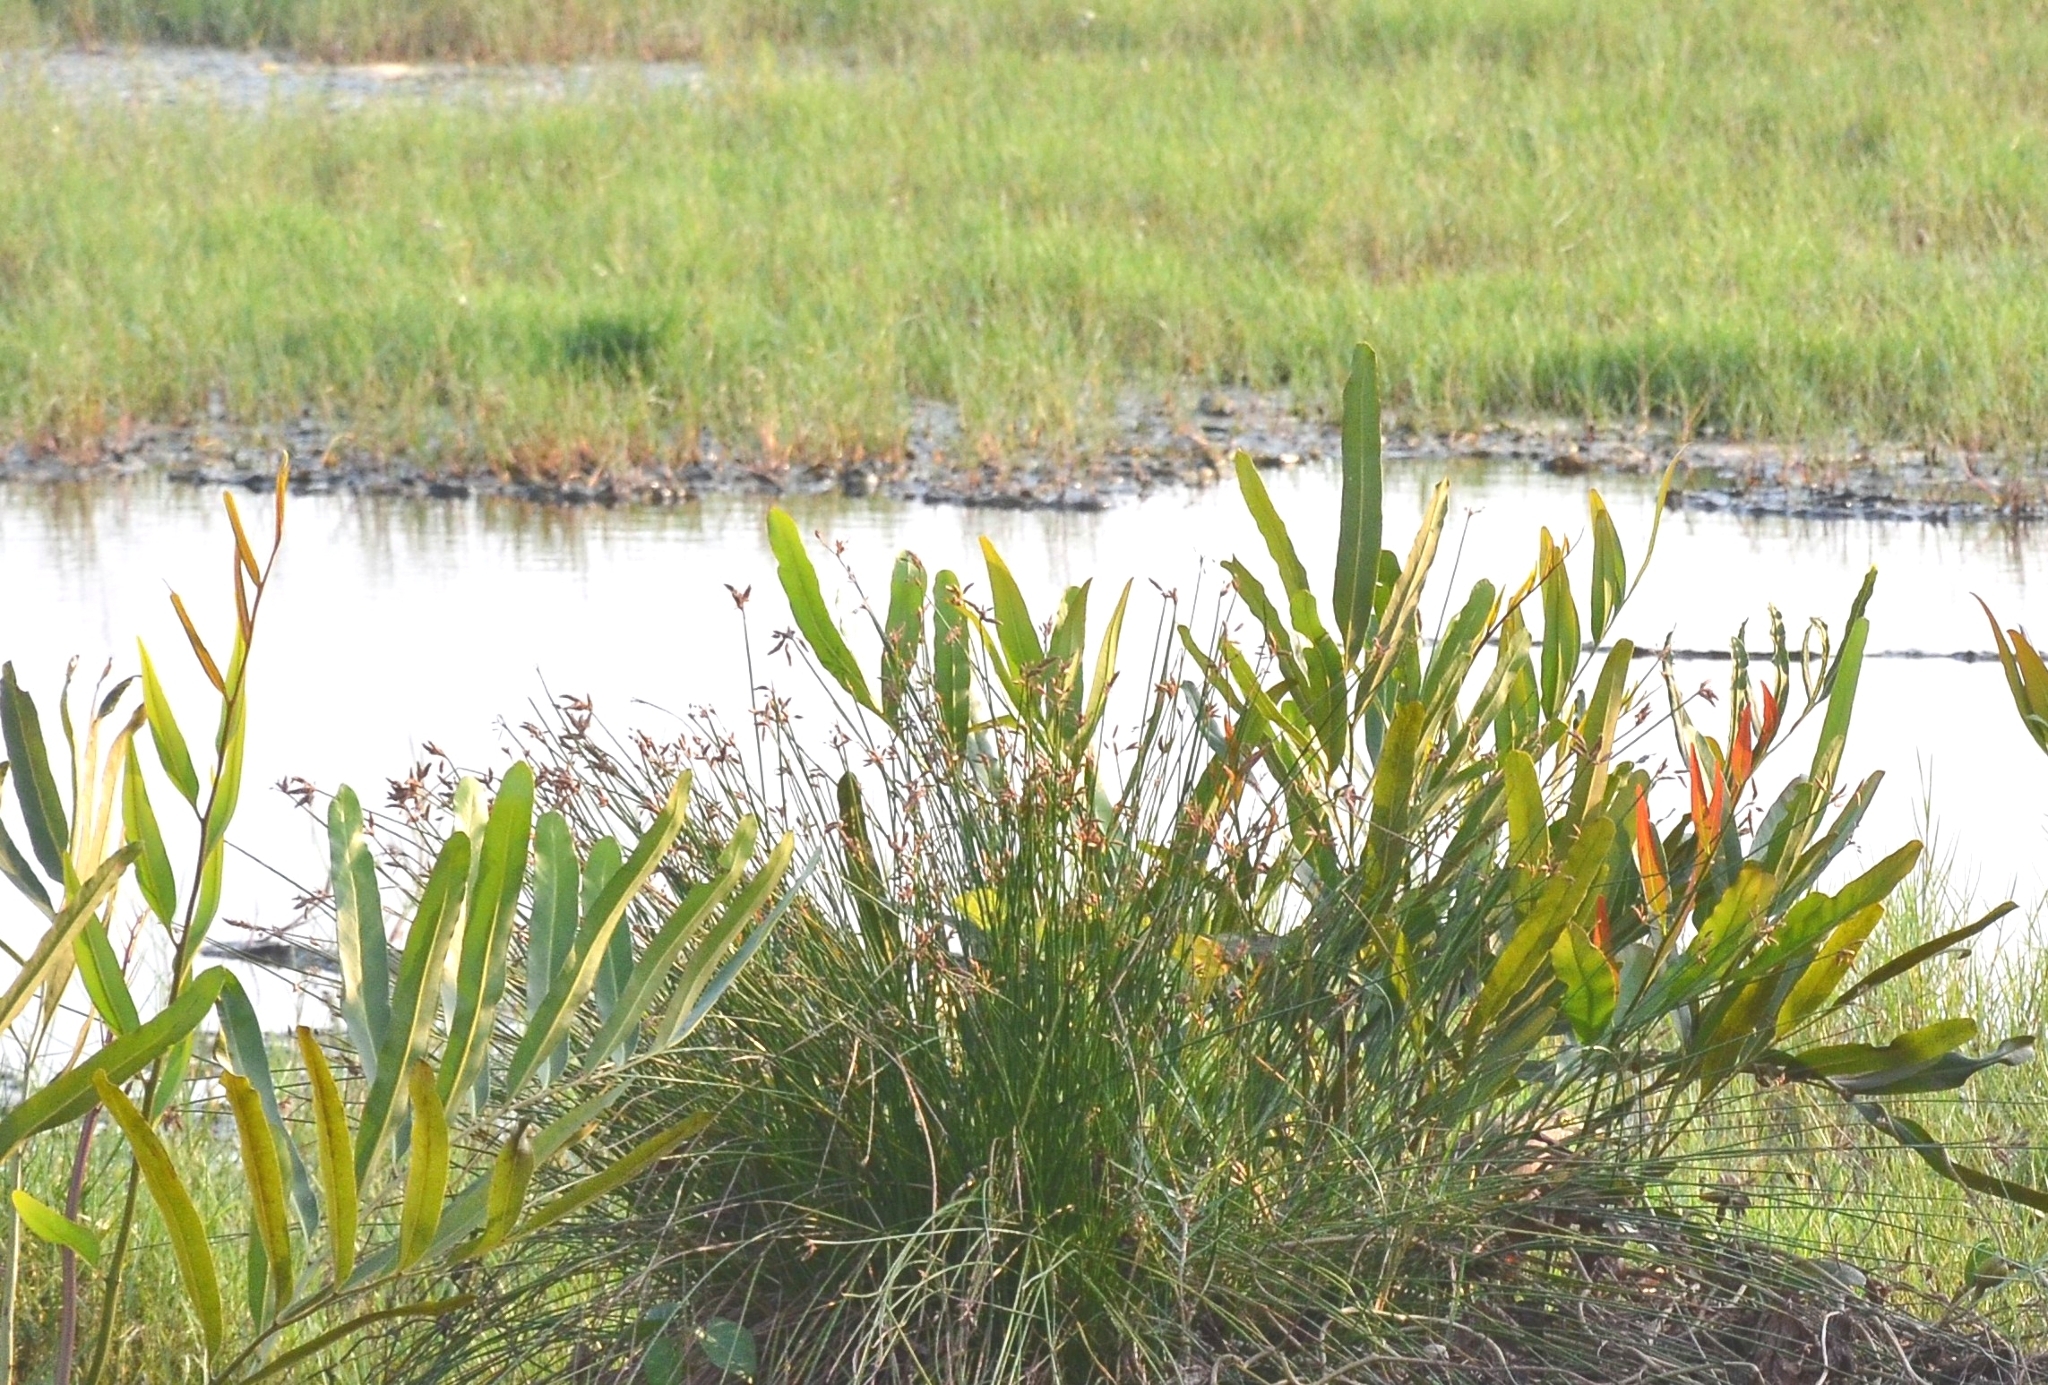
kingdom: Plantae
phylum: Tracheophyta
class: Polypodiopsida
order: Polypodiales
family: Pteridaceae
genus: Acrostichum
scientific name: Acrostichum aureum
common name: Leather fern
